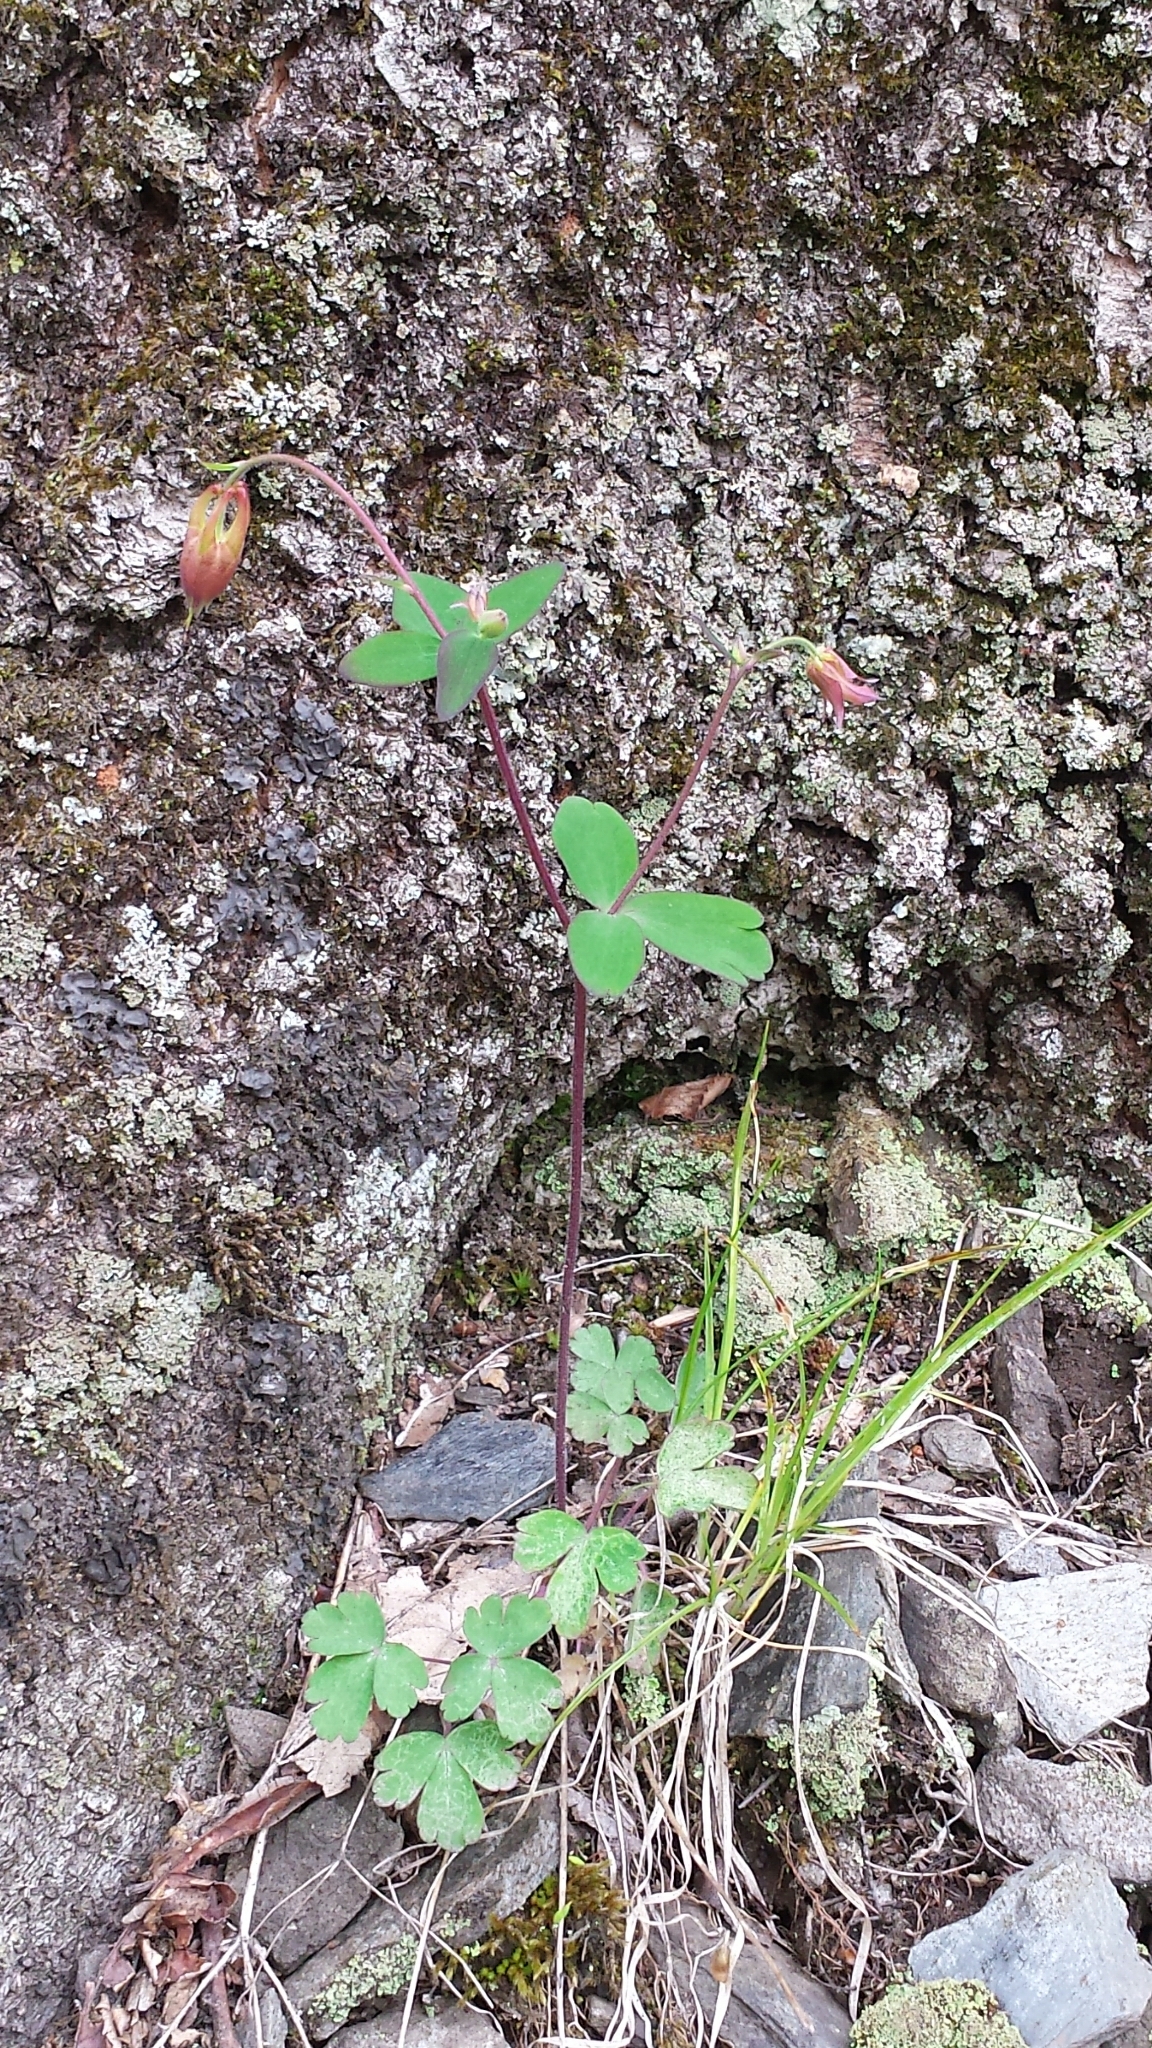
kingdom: Plantae
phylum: Tracheophyta
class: Magnoliopsida
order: Ranunculales
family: Ranunculaceae
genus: Aquilegia
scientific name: Aquilegia canadensis
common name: American columbine
